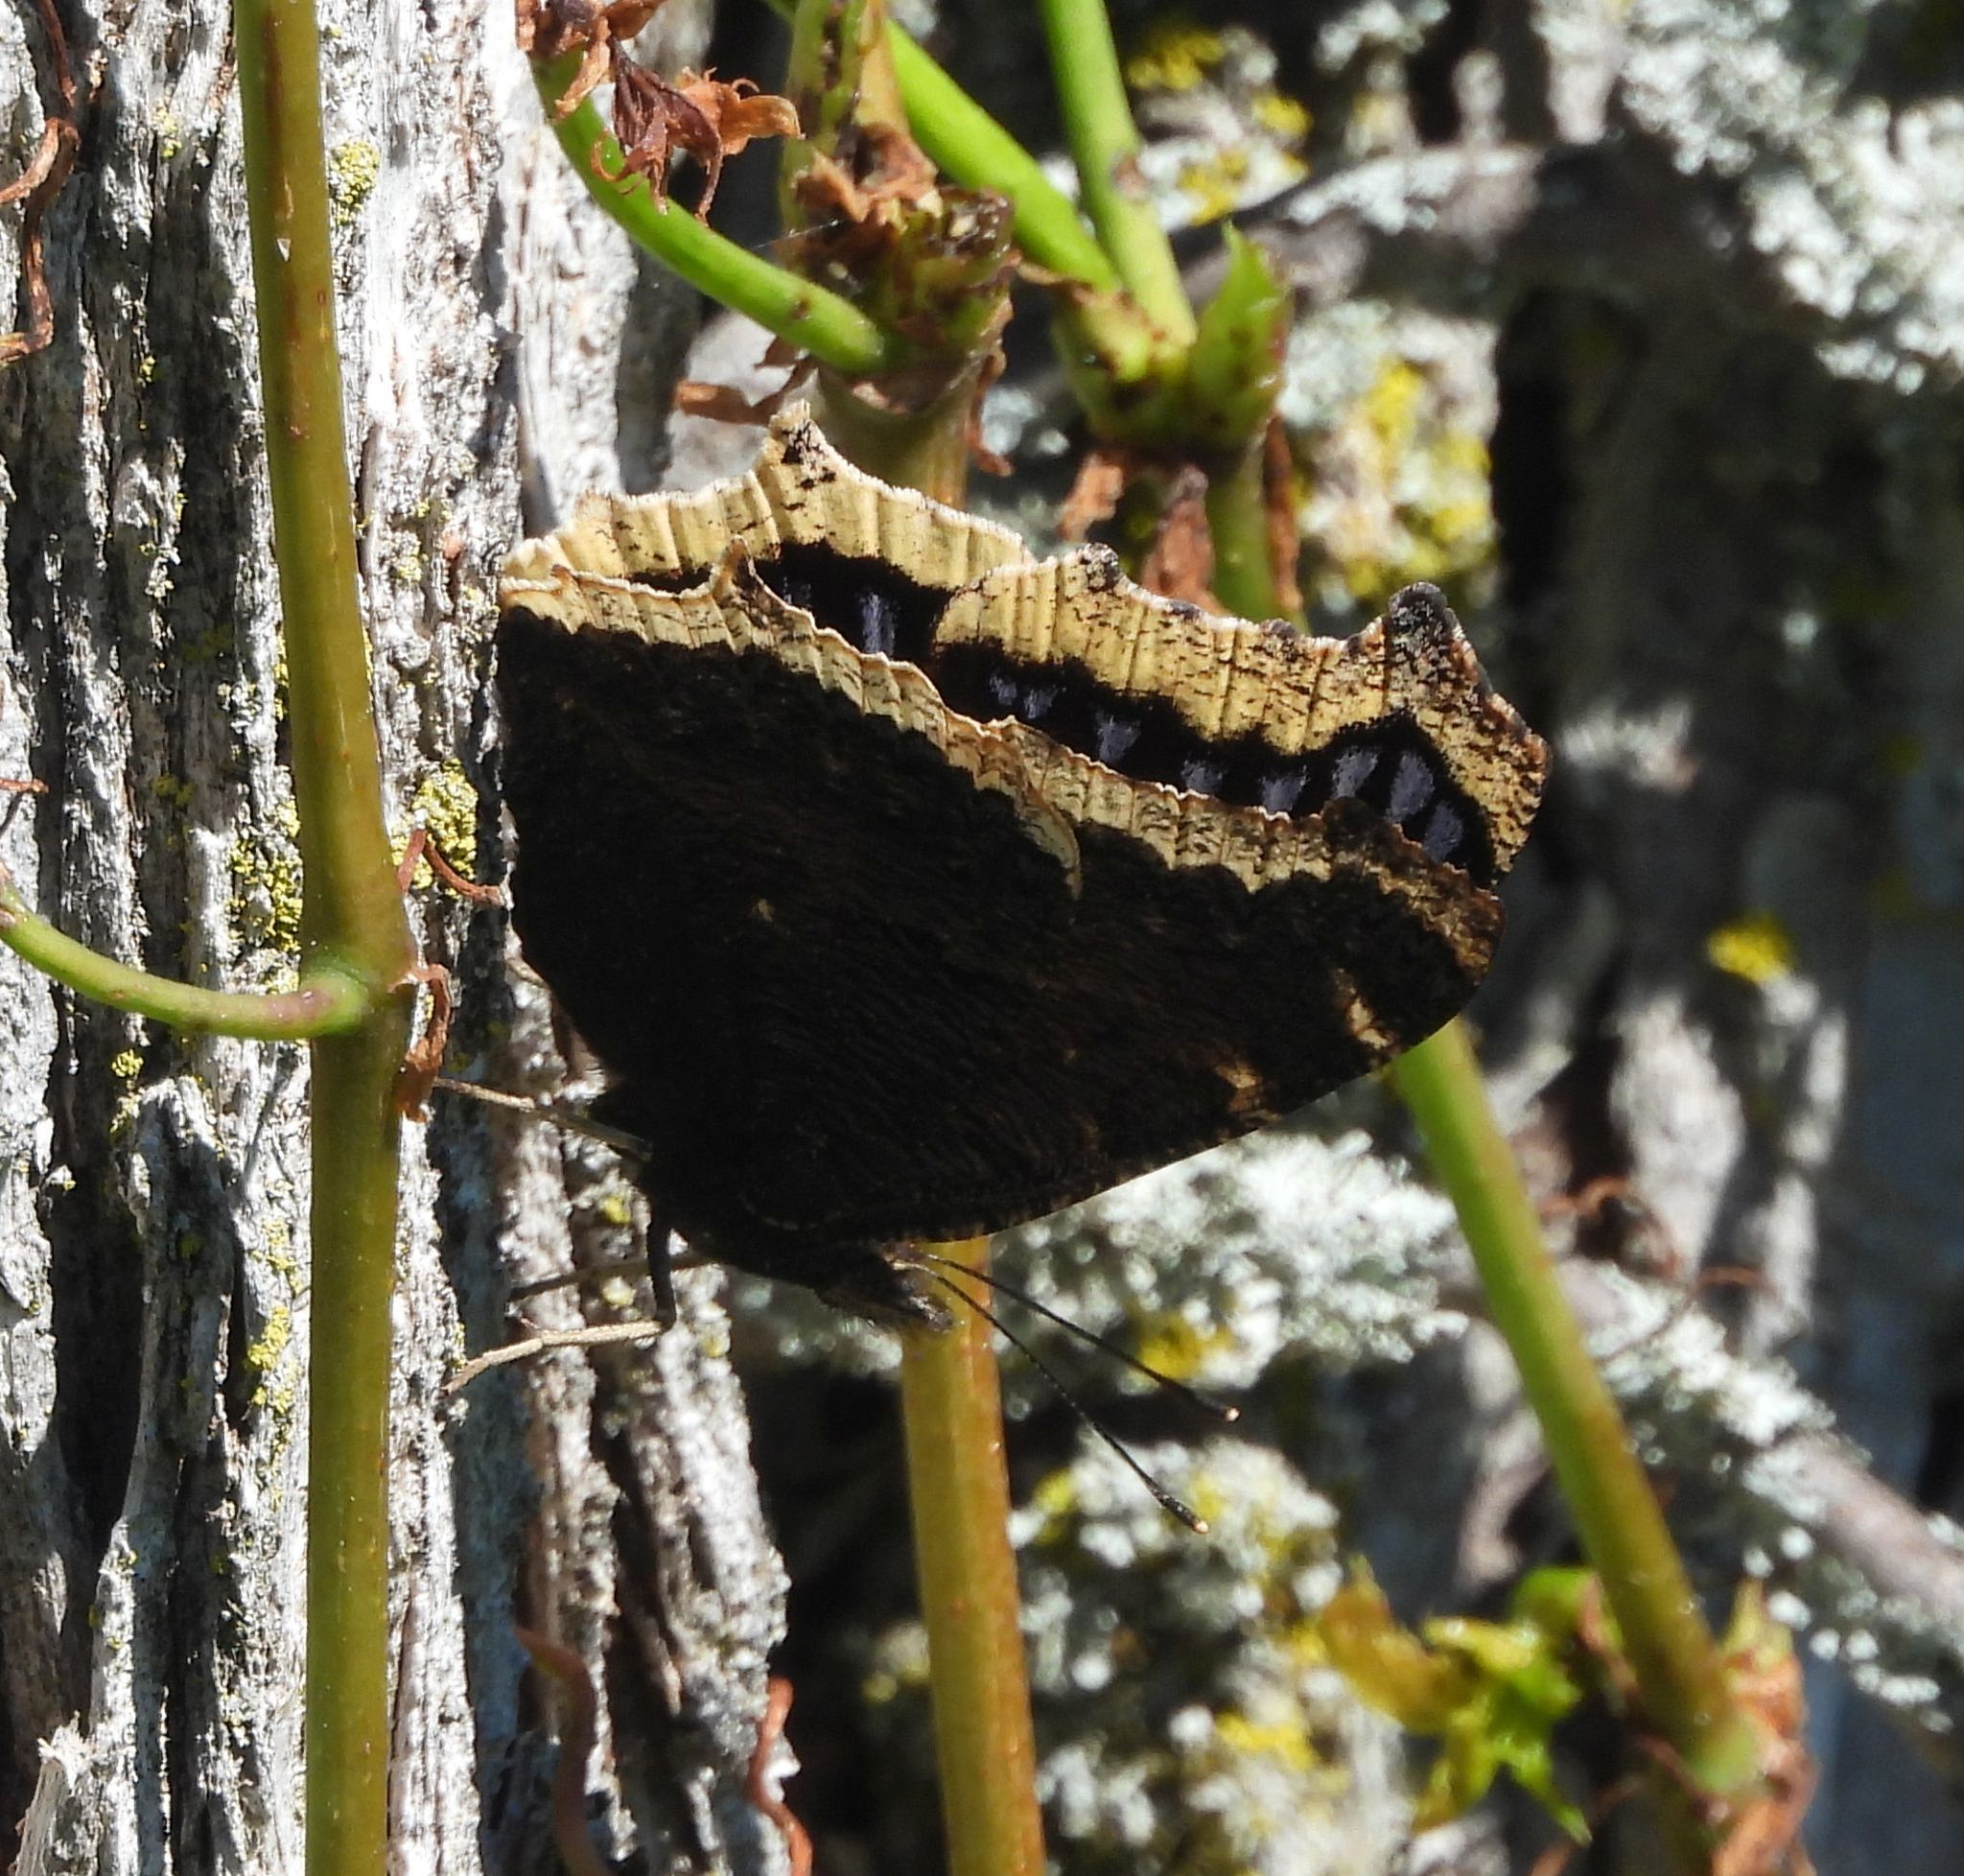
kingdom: Animalia
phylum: Arthropoda
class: Insecta
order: Lepidoptera
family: Nymphalidae
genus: Nymphalis
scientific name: Nymphalis antiopa
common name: Camberwell beauty
